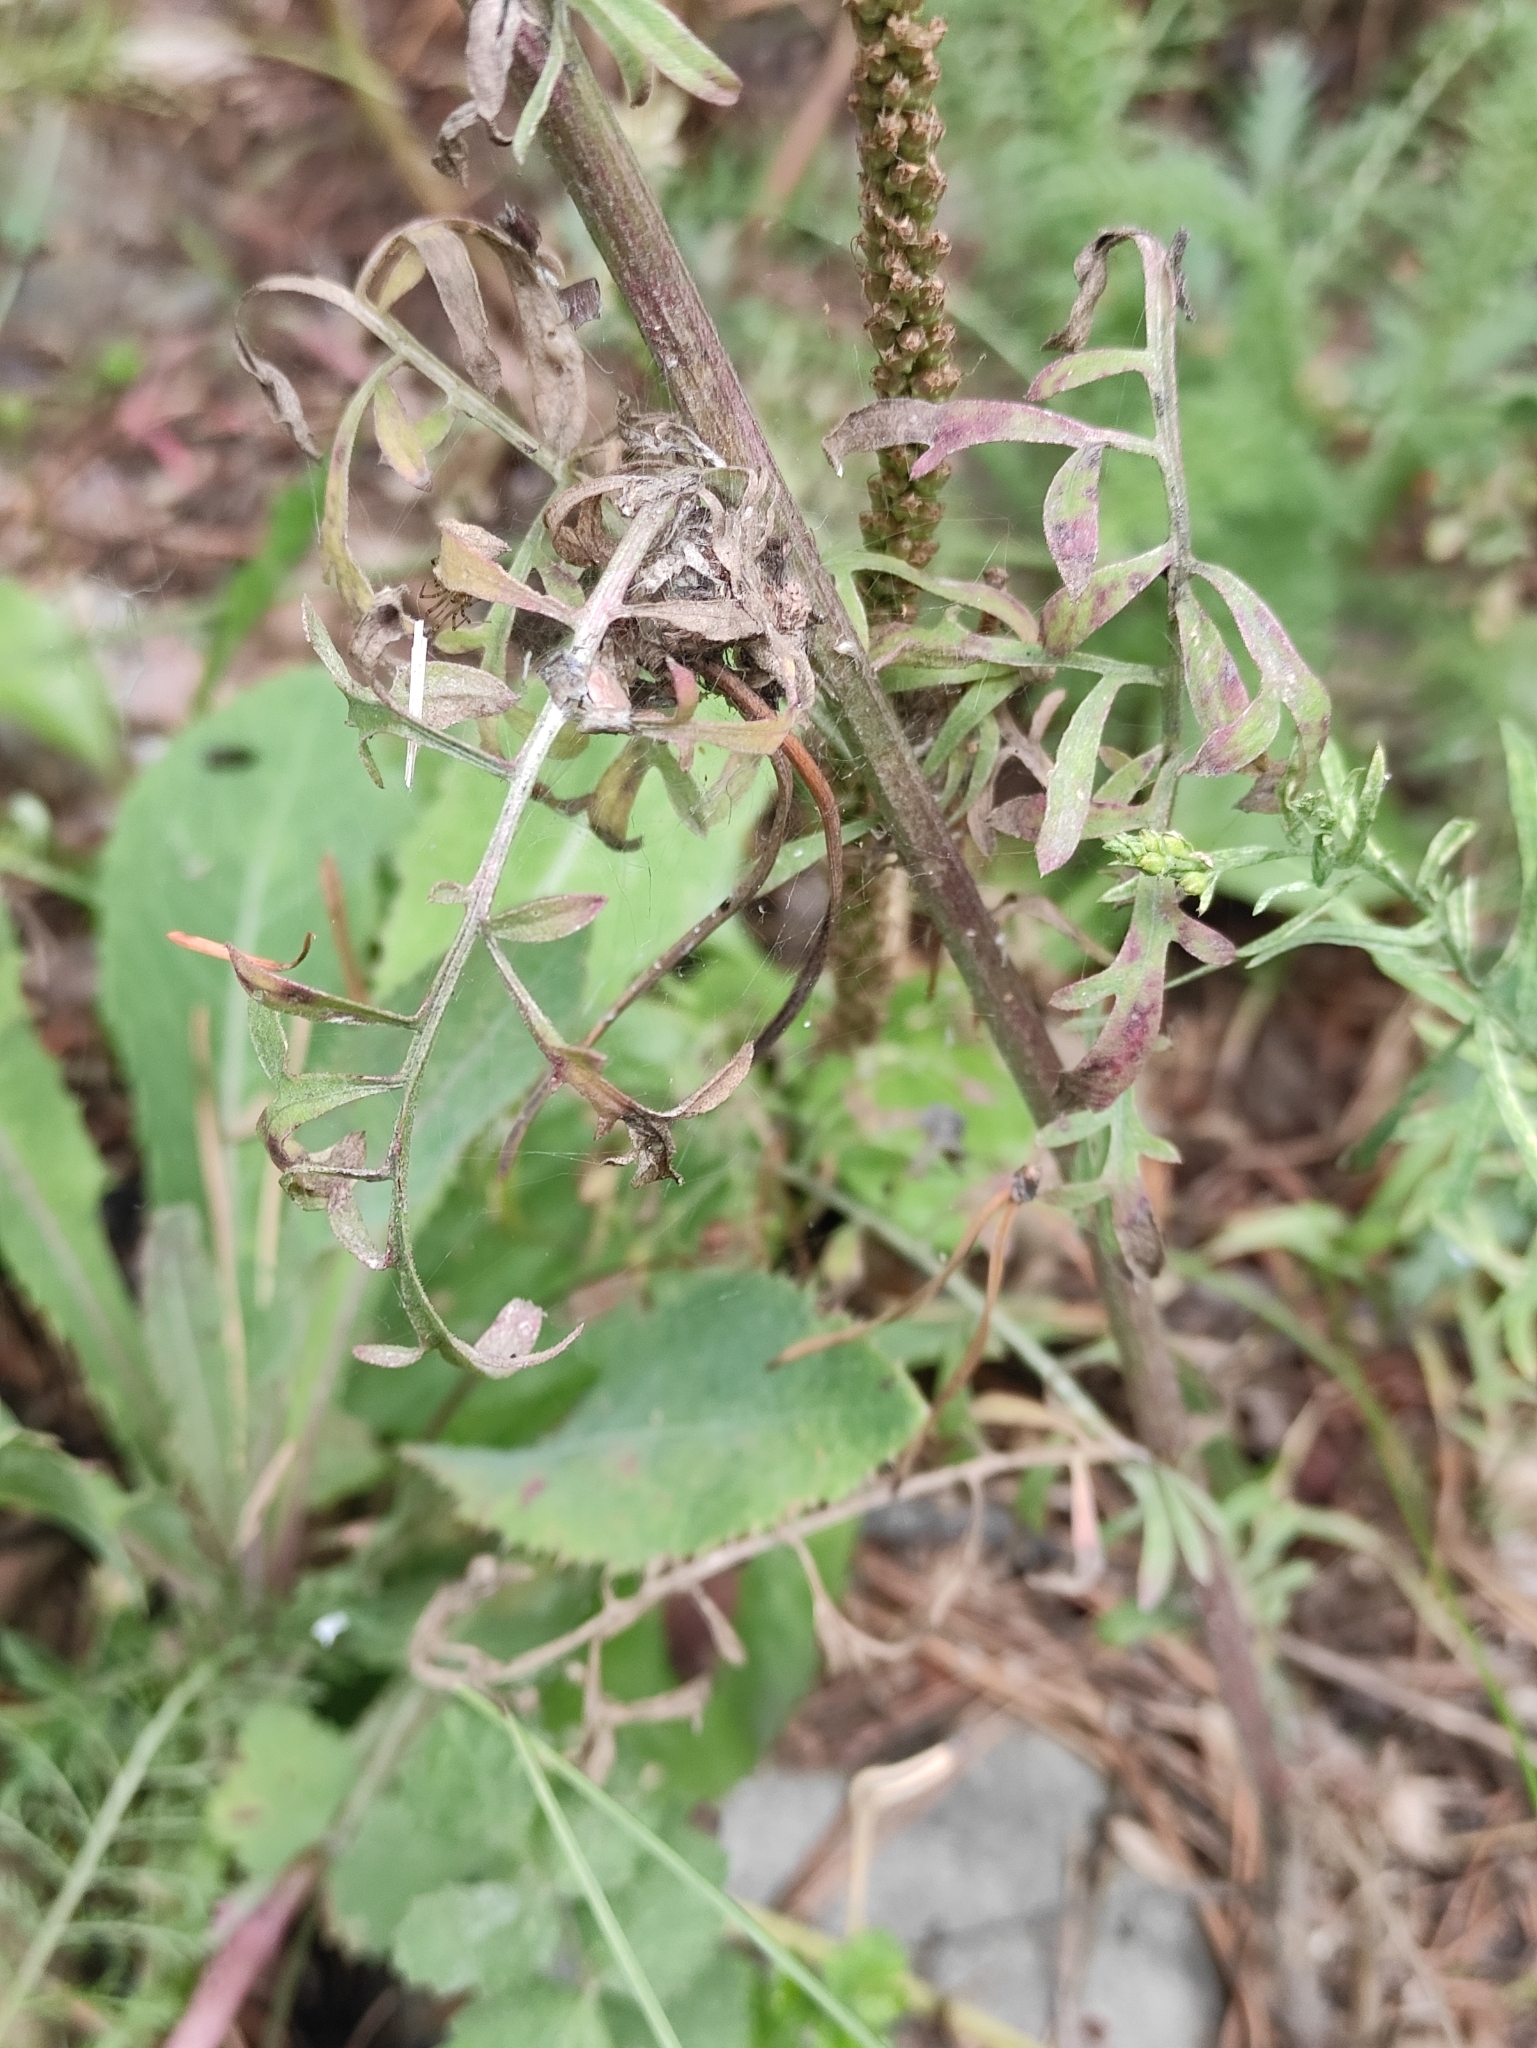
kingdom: Plantae
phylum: Tracheophyta
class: Magnoliopsida
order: Asterales
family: Asteraceae
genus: Centaurea
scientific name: Centaurea stoebe
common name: Spotted knapweed
